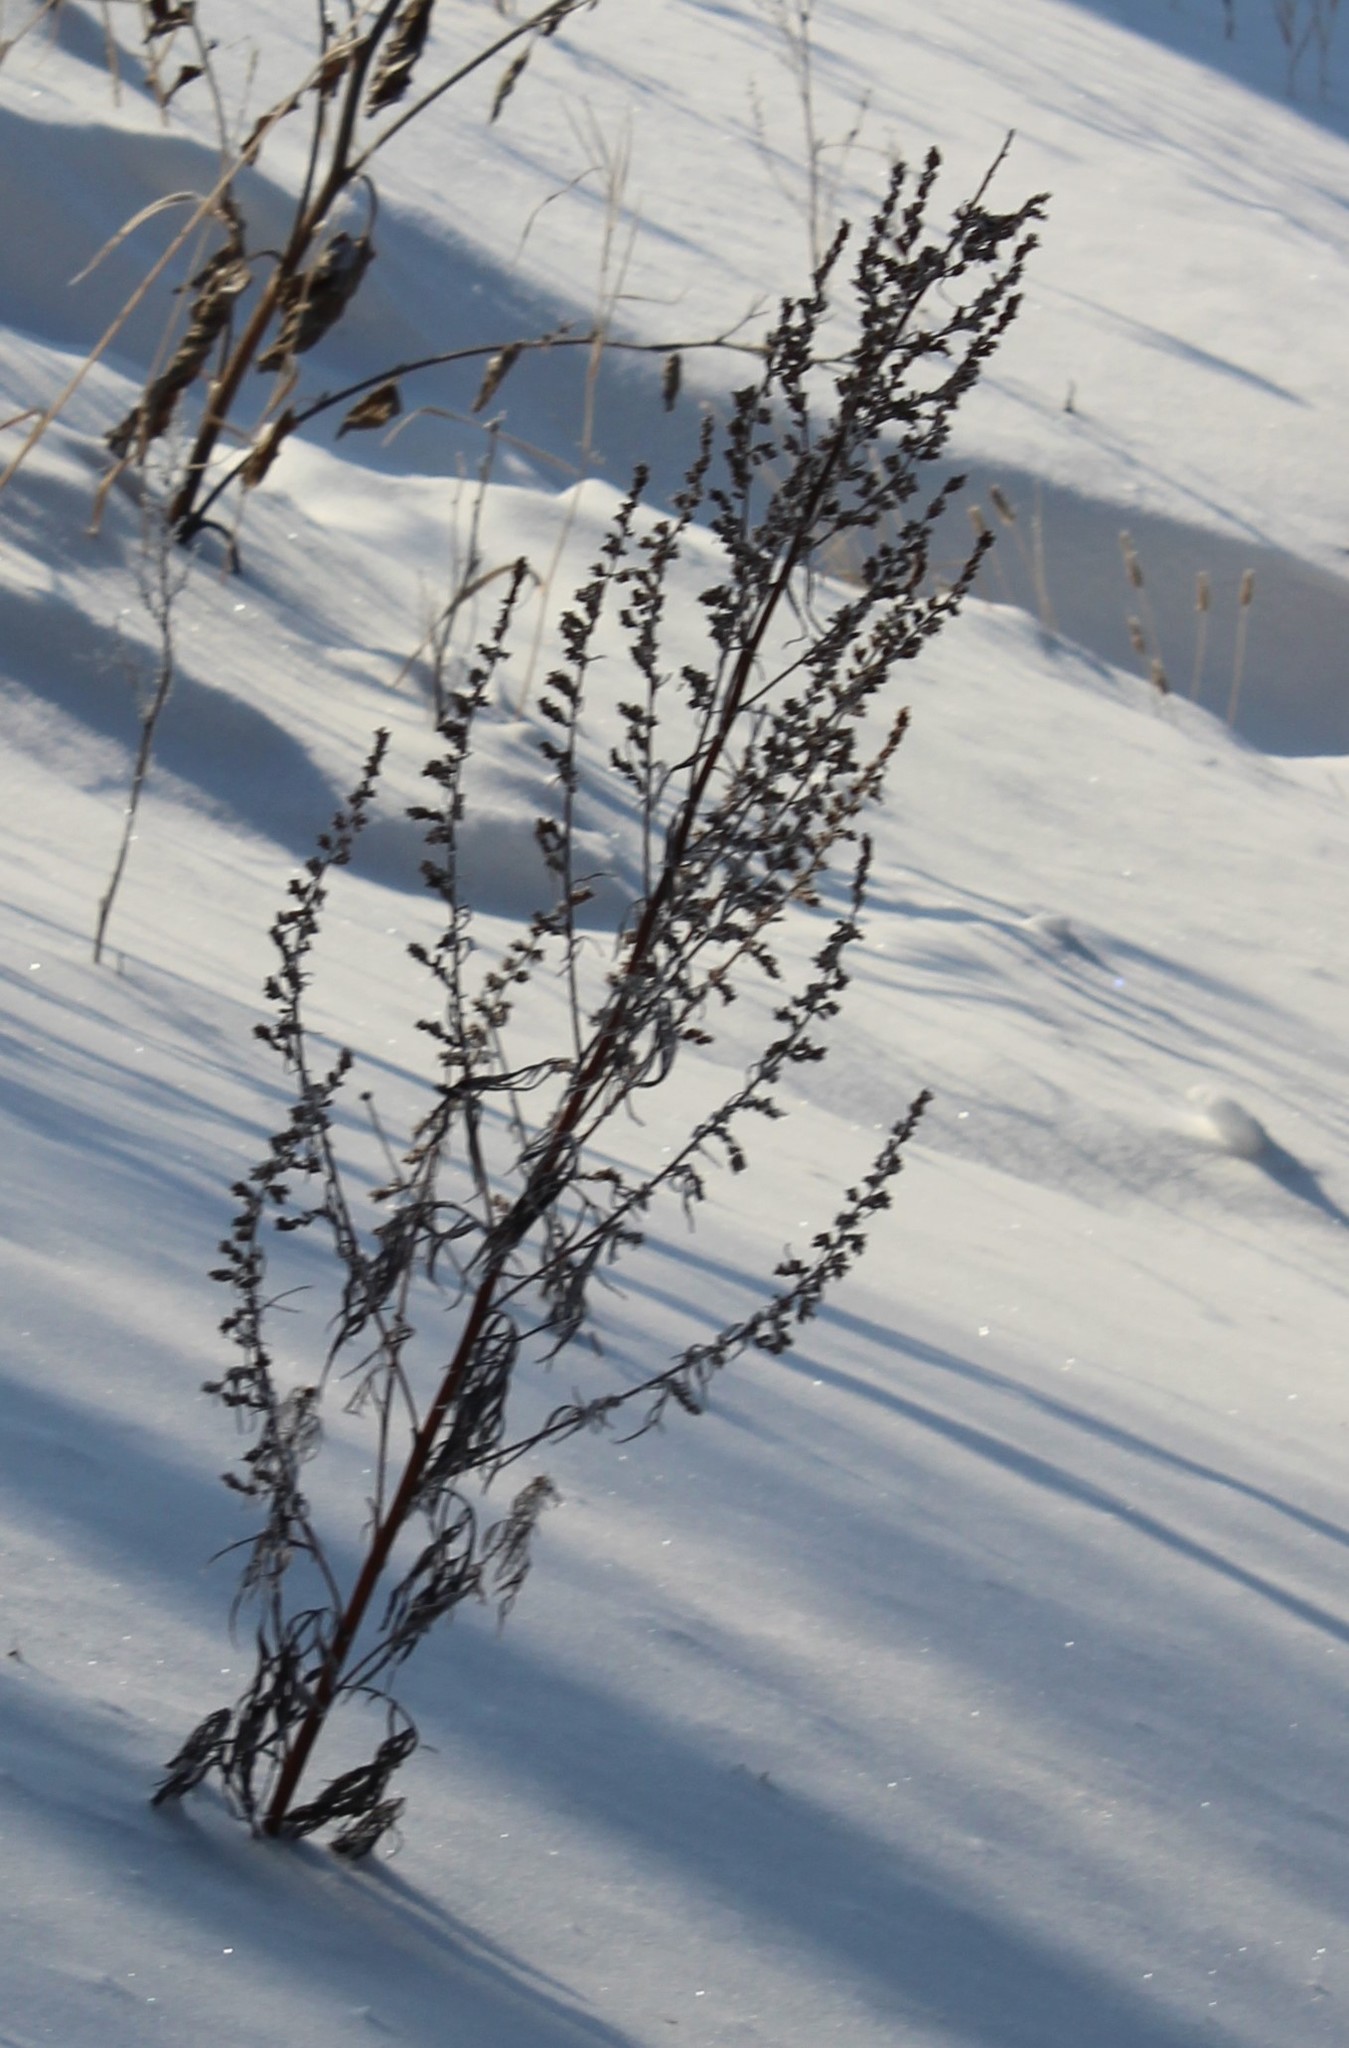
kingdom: Plantae
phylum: Tracheophyta
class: Magnoliopsida
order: Asterales
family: Asteraceae
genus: Artemisia
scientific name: Artemisia vulgaris
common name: Mugwort
